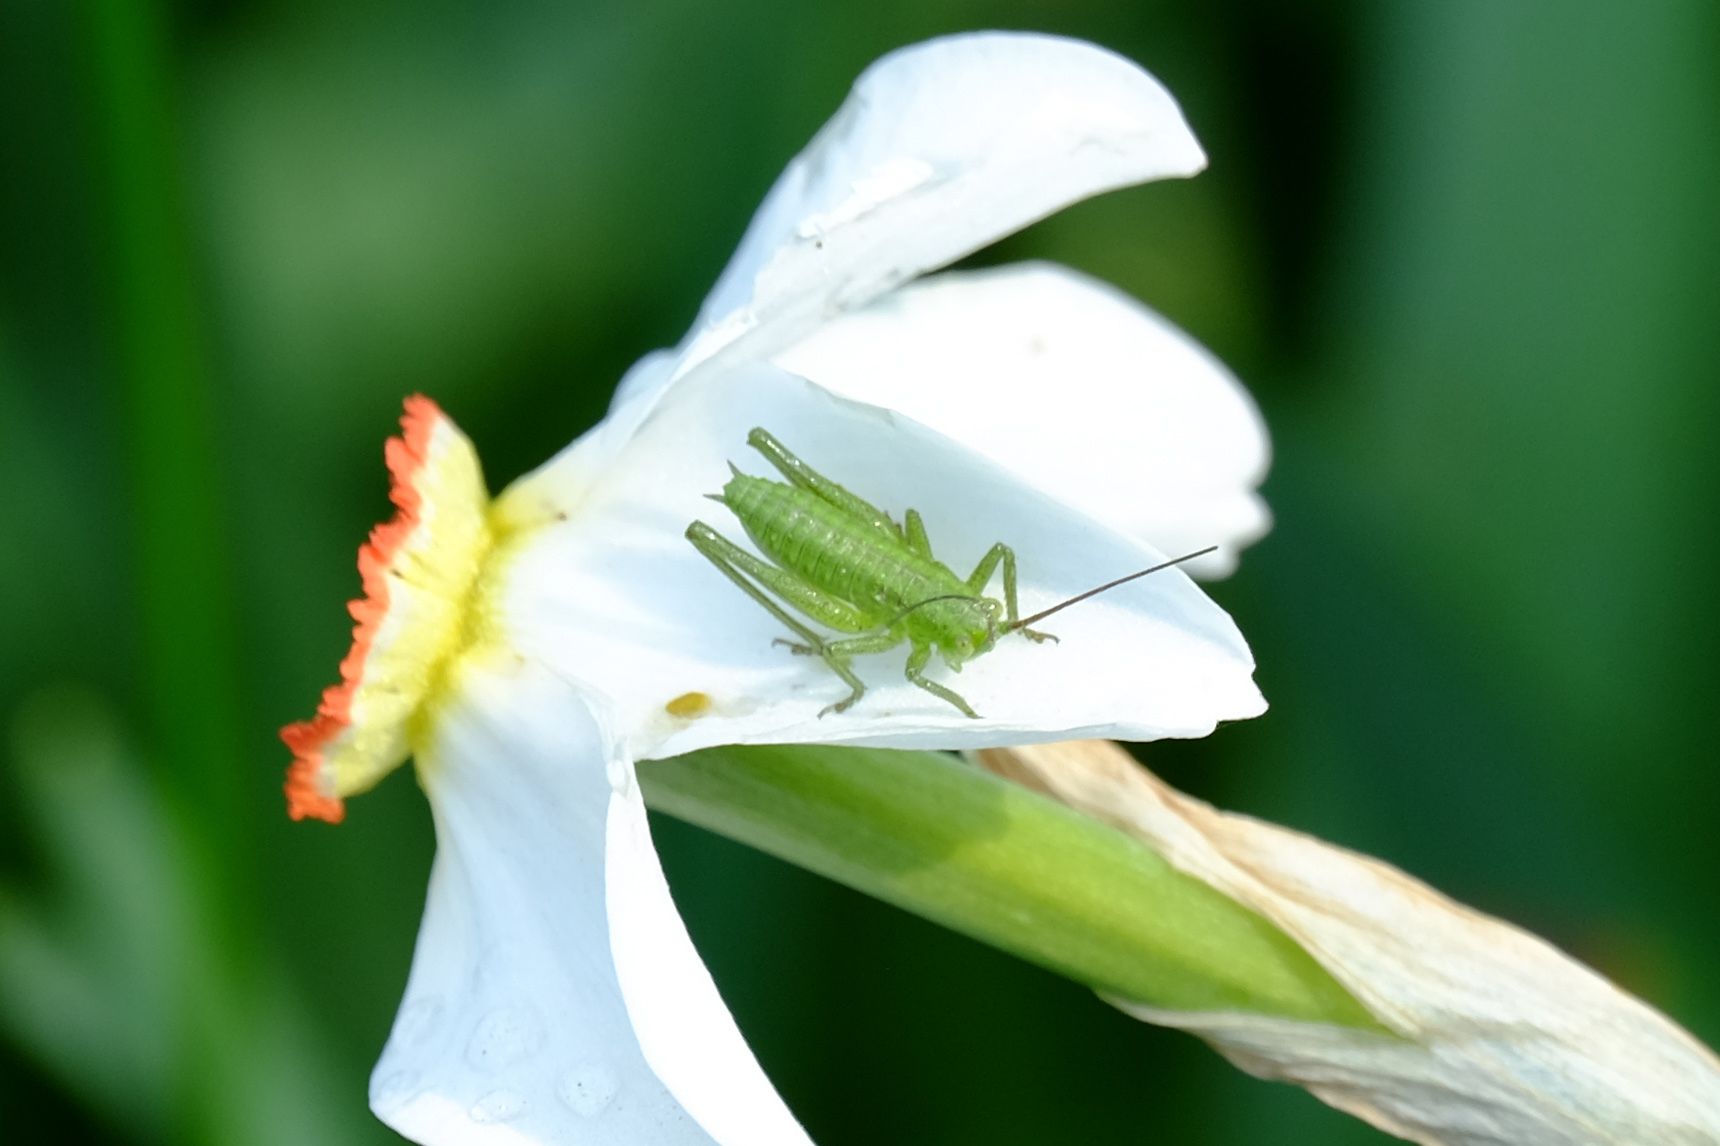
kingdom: Animalia
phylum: Arthropoda
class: Insecta
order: Orthoptera
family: Tettigoniidae
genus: Tettigonia
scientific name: Tettigonia viridissima
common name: Great green bush-cricket
